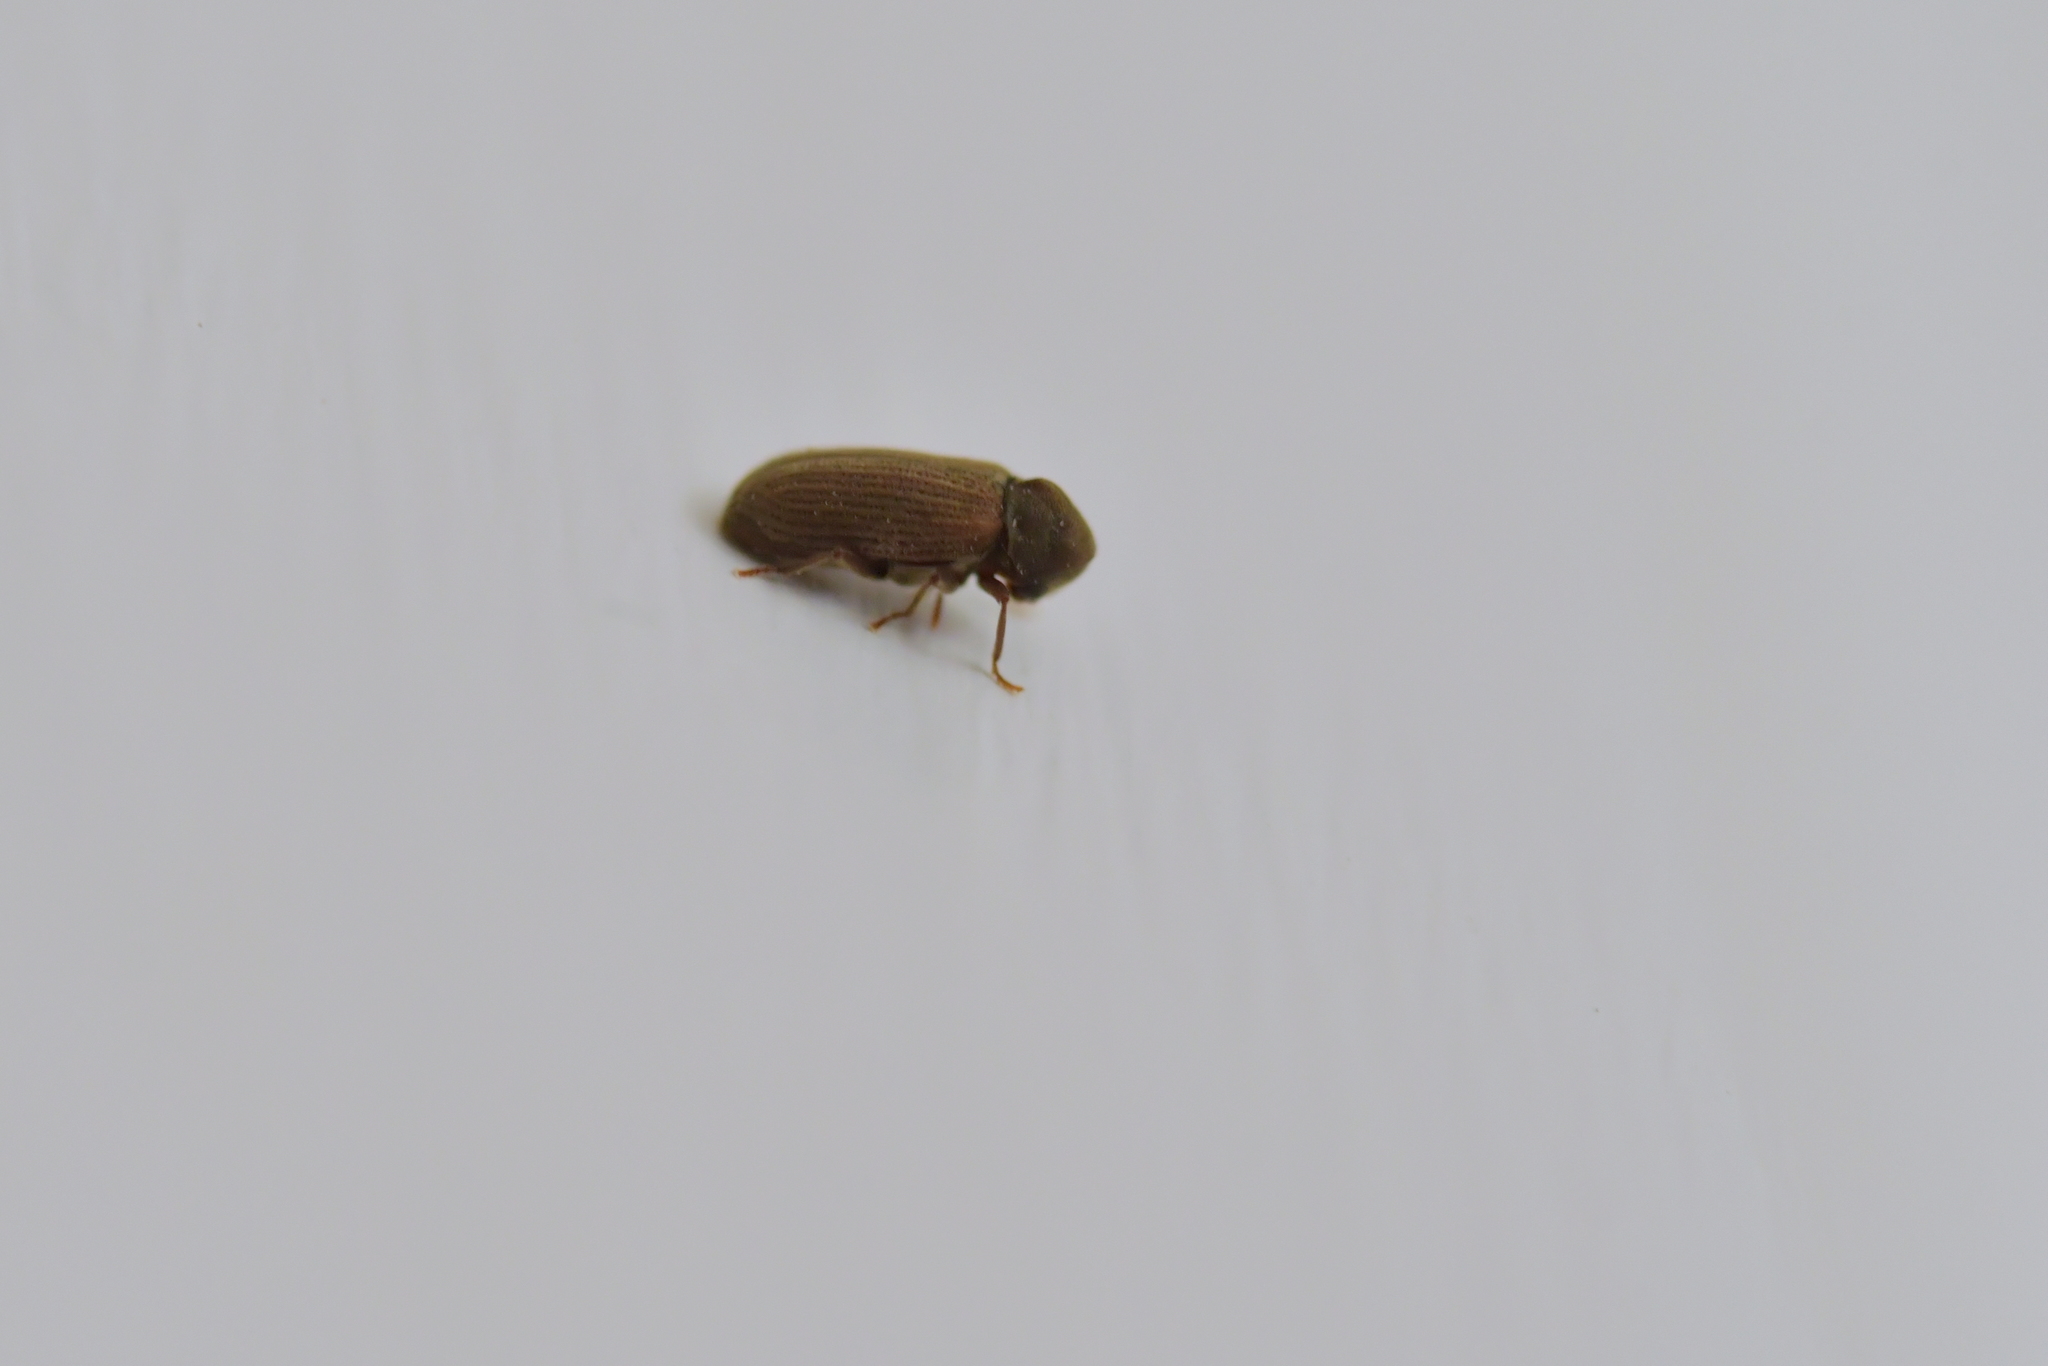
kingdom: Animalia
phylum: Arthropoda
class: Insecta
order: Coleoptera
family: Anobiidae
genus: Anobium
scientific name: Anobium punctatum
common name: Furniture beetle
